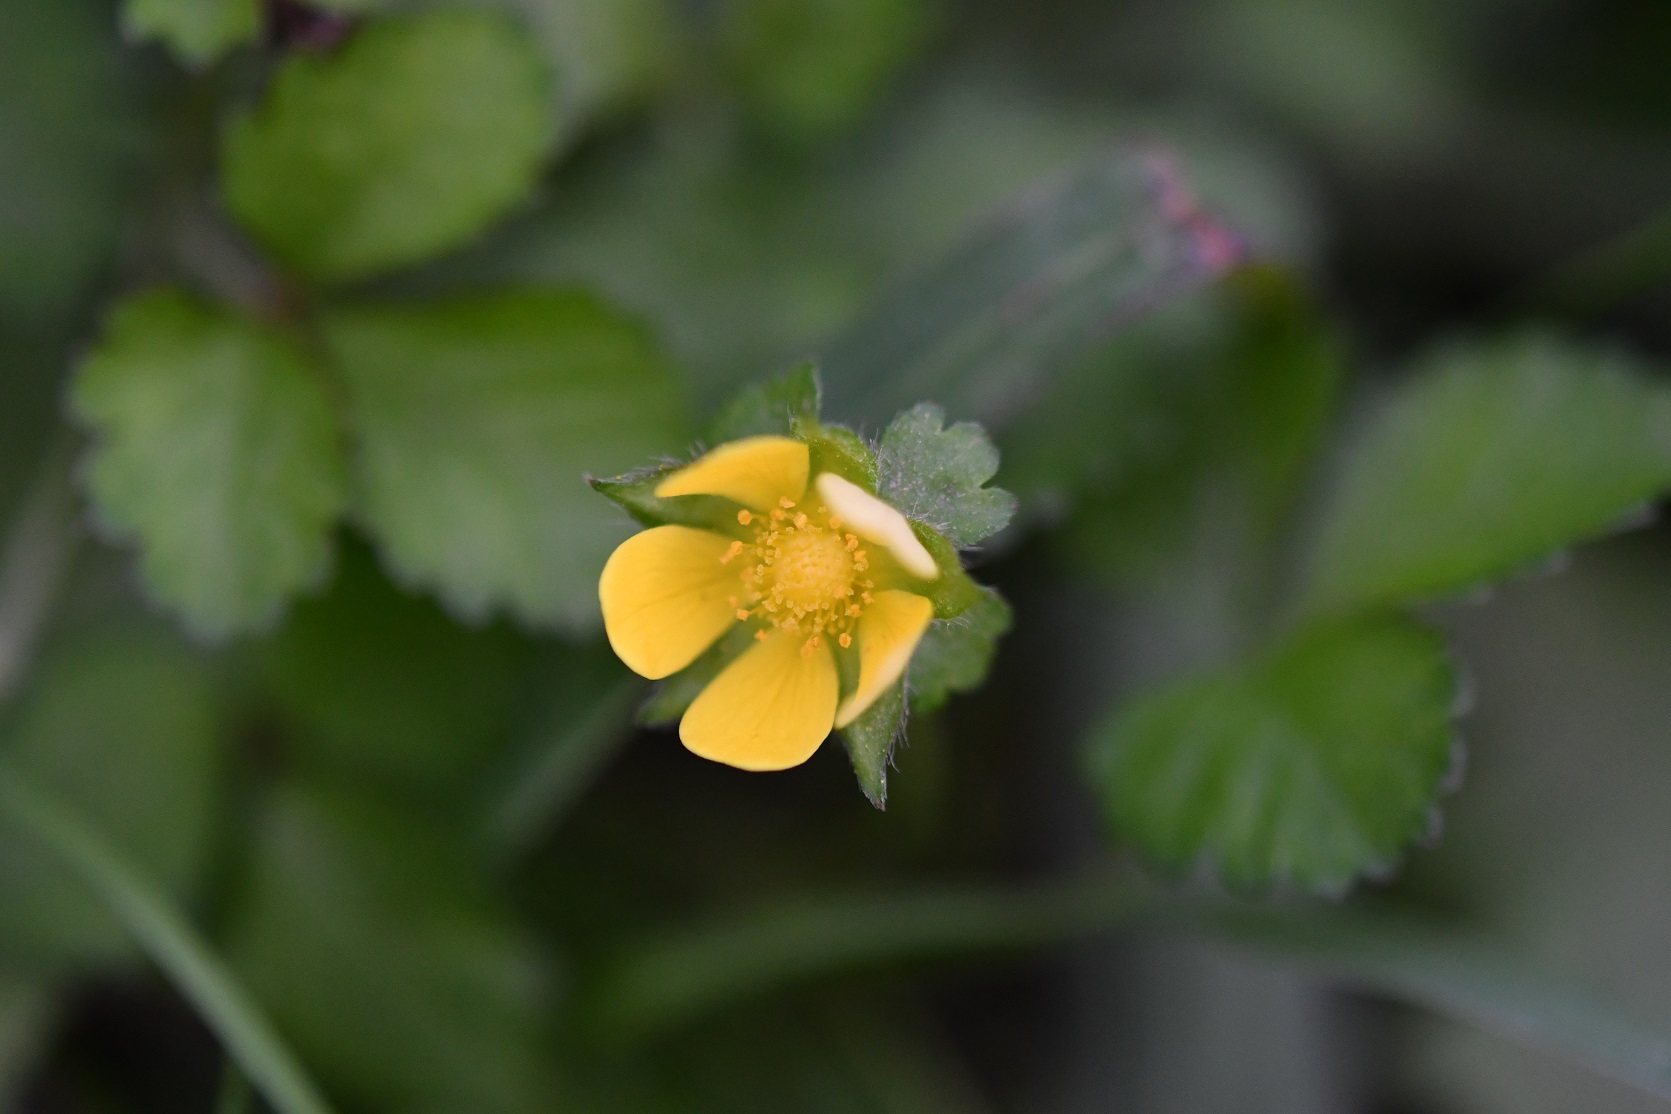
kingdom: Plantae
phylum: Tracheophyta
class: Magnoliopsida
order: Rosales
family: Rosaceae
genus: Potentilla
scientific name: Potentilla indica
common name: Yellow-flowered strawberry
